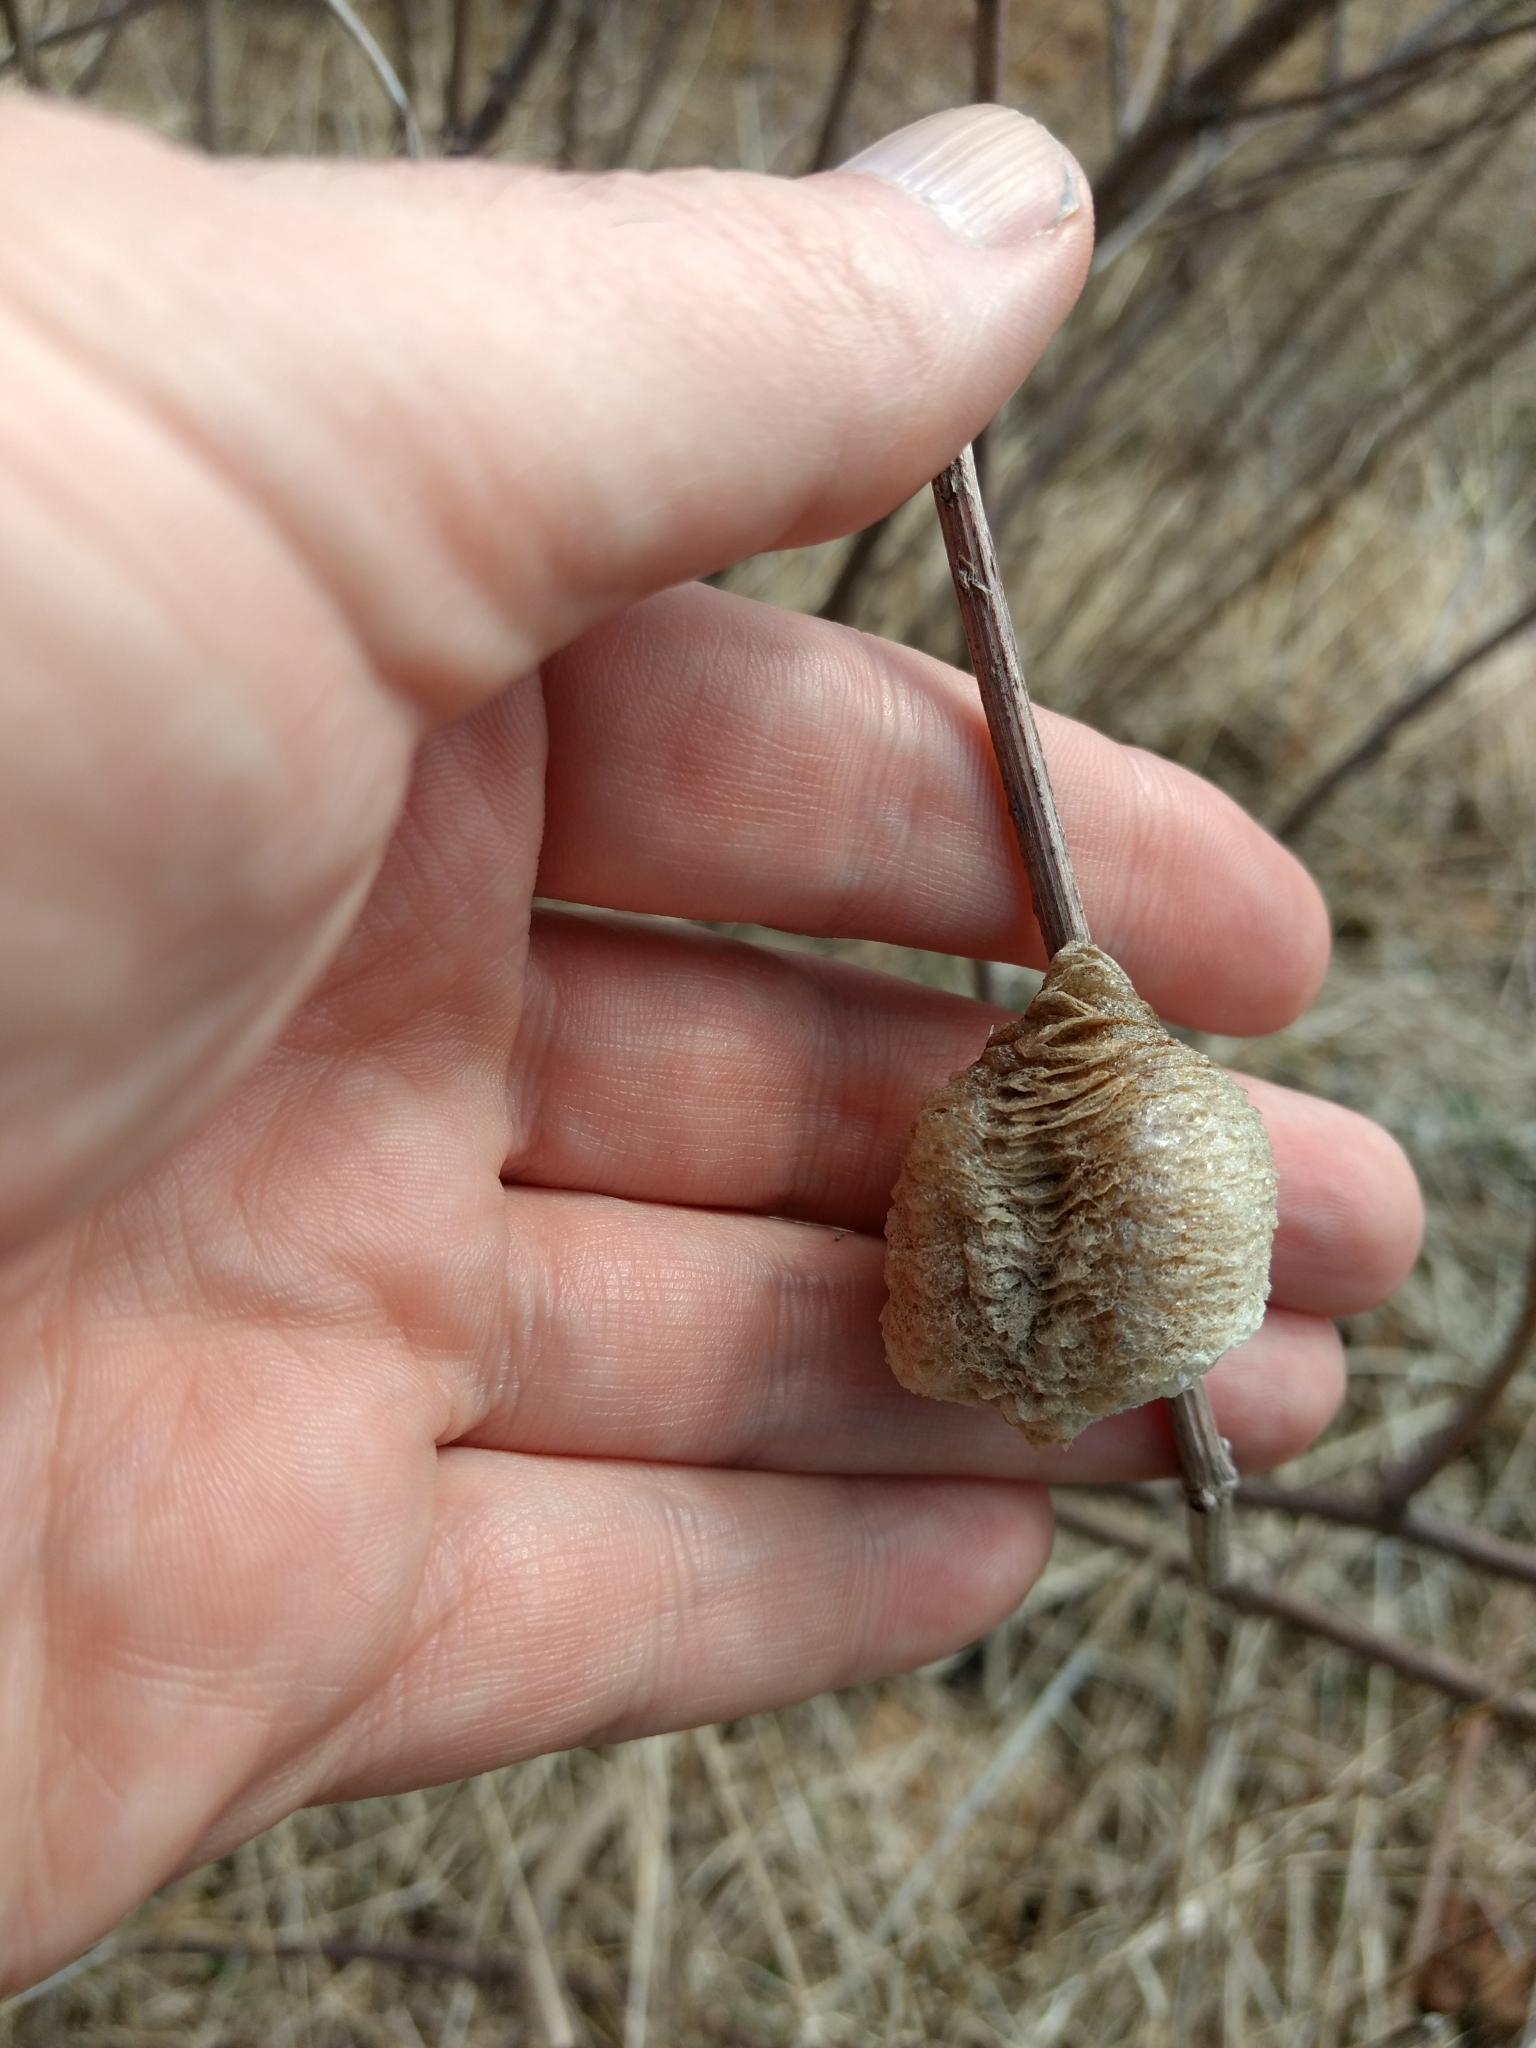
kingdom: Animalia
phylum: Arthropoda
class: Insecta
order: Mantodea
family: Mantidae
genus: Tenodera
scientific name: Tenodera sinensis
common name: Chinese mantis
